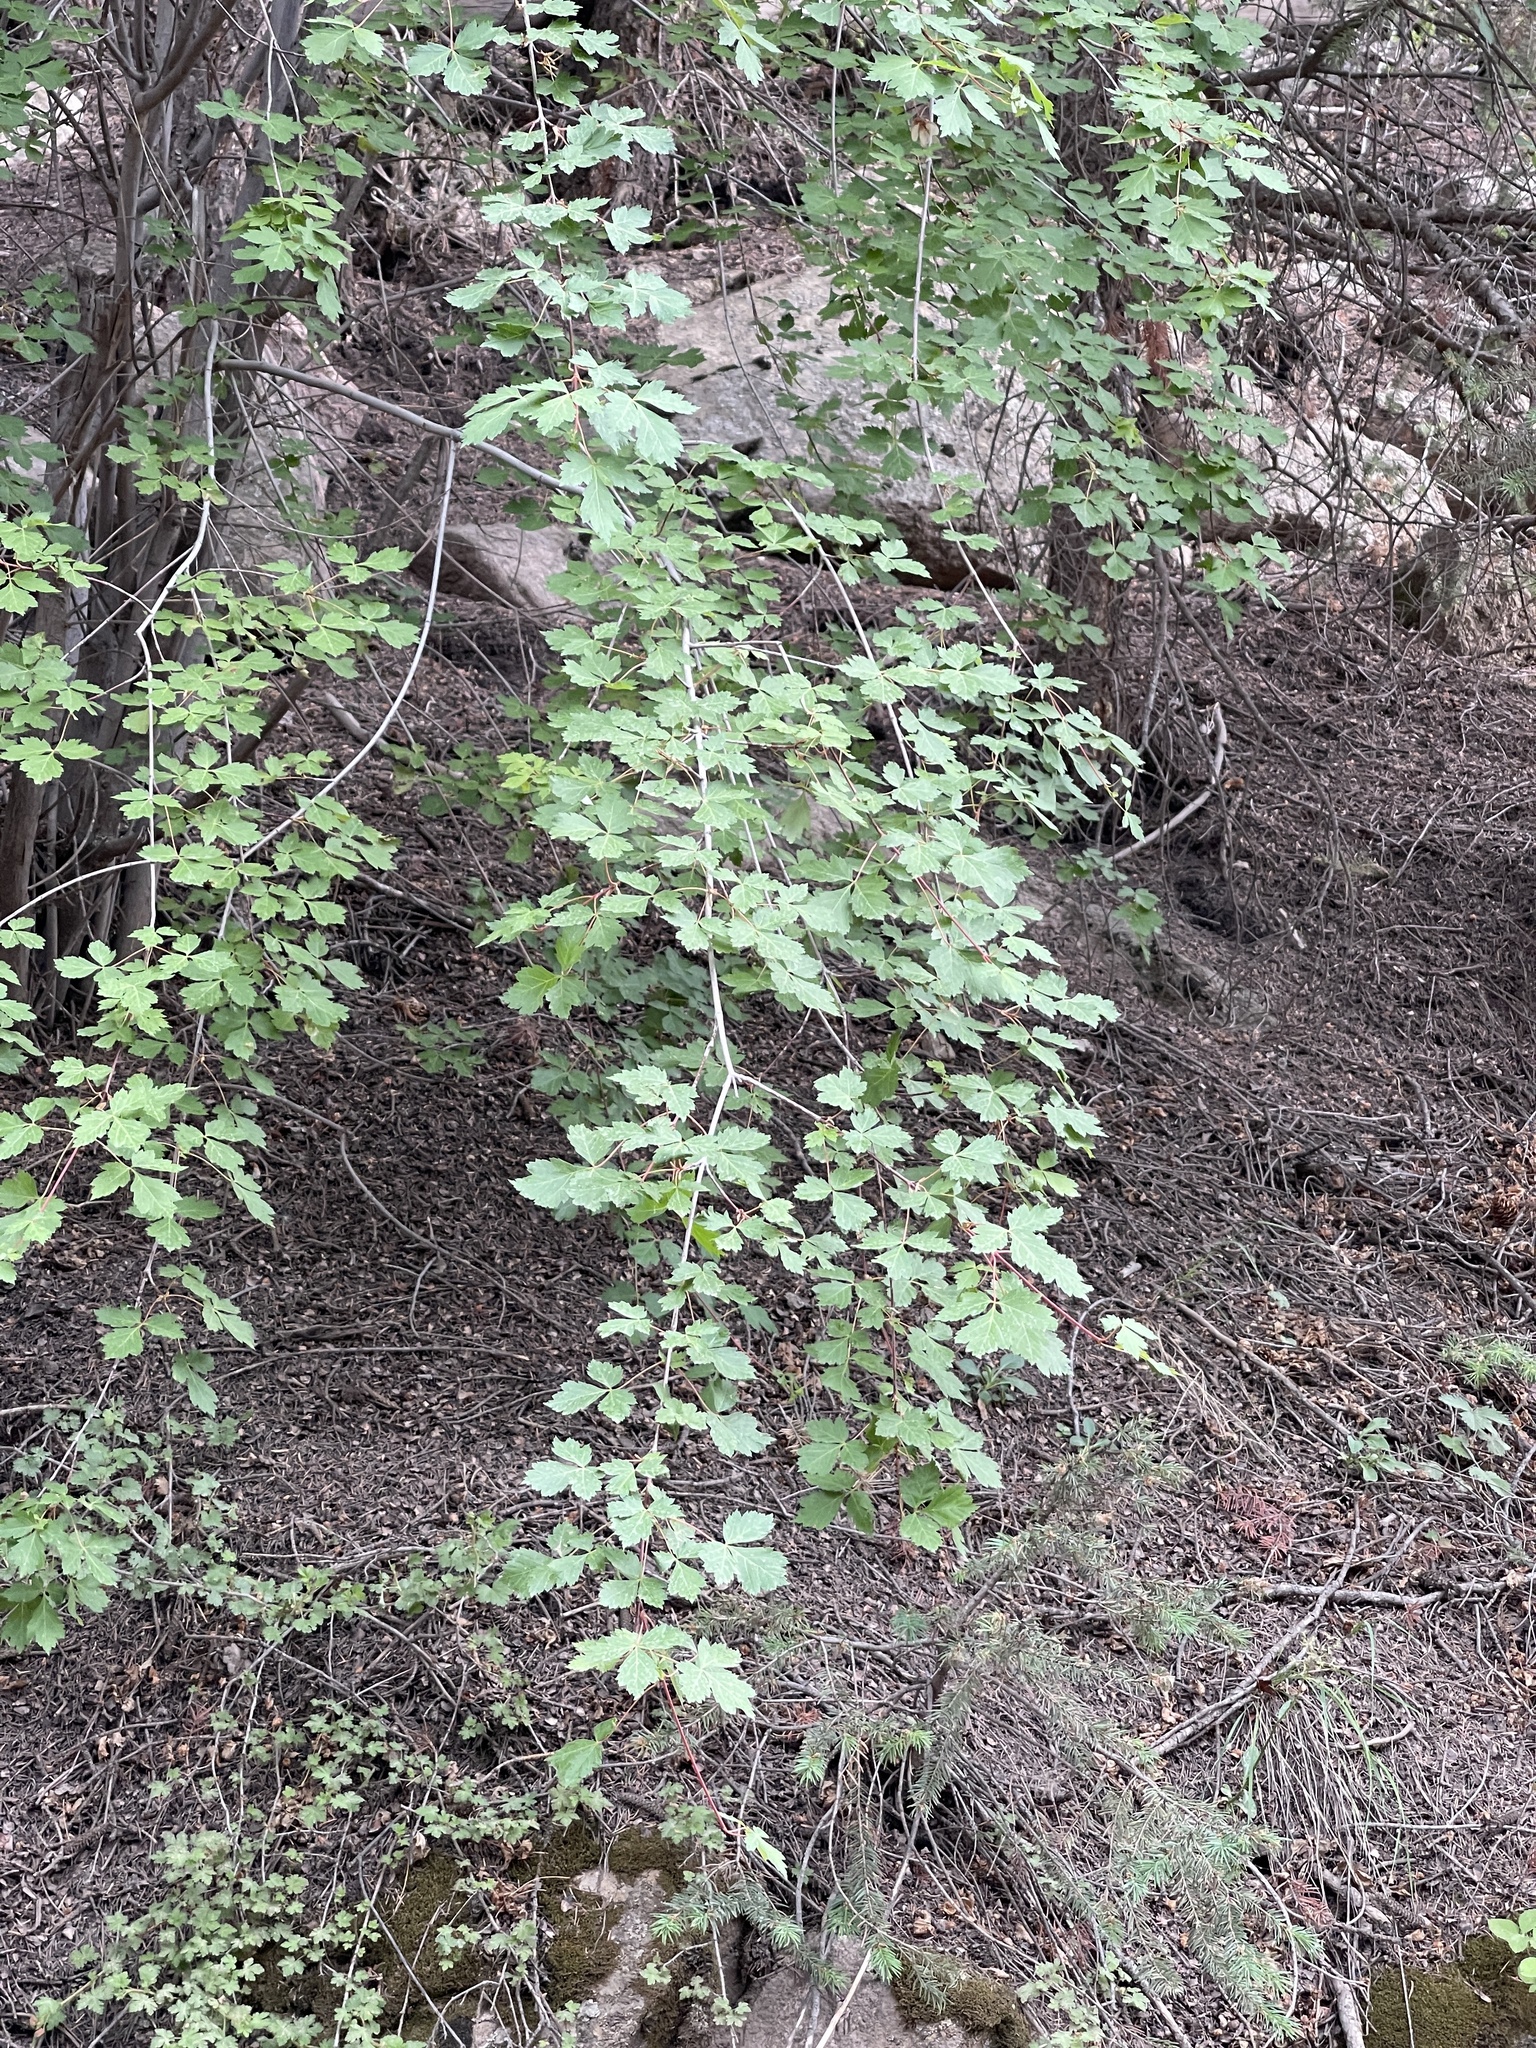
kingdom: Plantae
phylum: Tracheophyta
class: Magnoliopsida
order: Sapindales
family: Sapindaceae
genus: Acer
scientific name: Acer glabrum
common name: Rocky mountain maple
